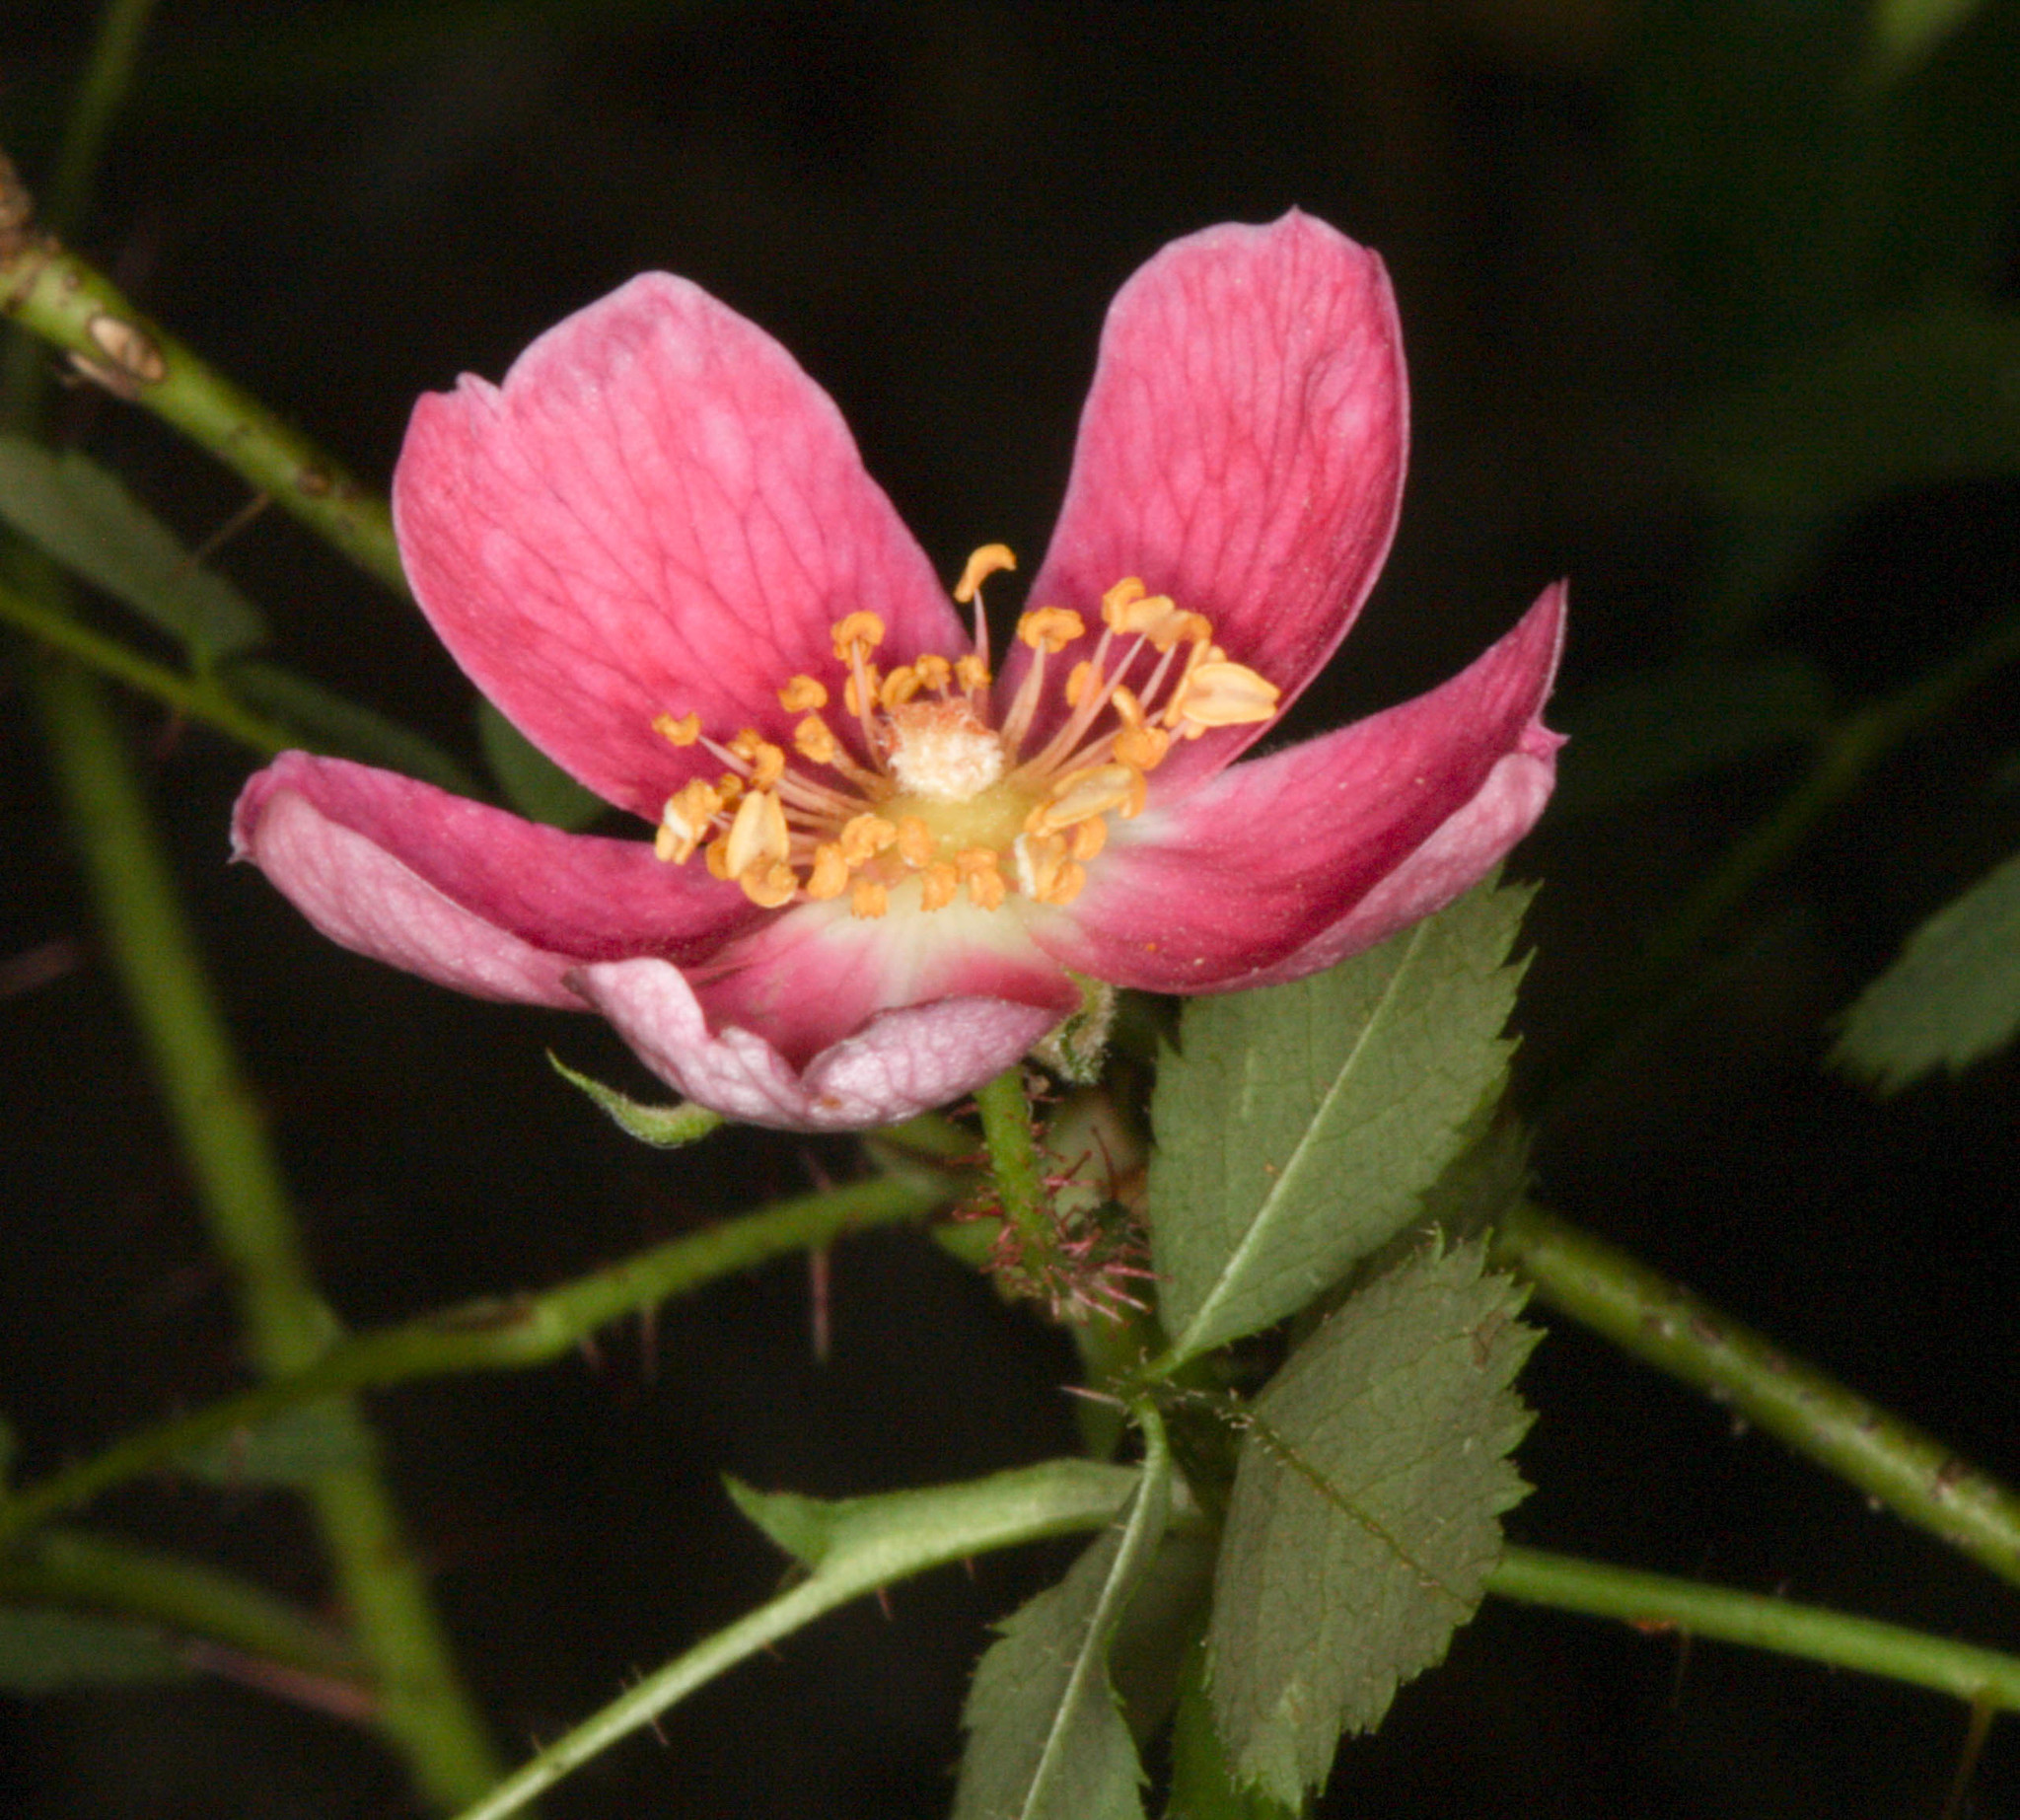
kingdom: Plantae
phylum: Tracheophyta
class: Magnoliopsida
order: Rosales
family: Rosaceae
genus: Rosa
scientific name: Rosa gymnocarpa
